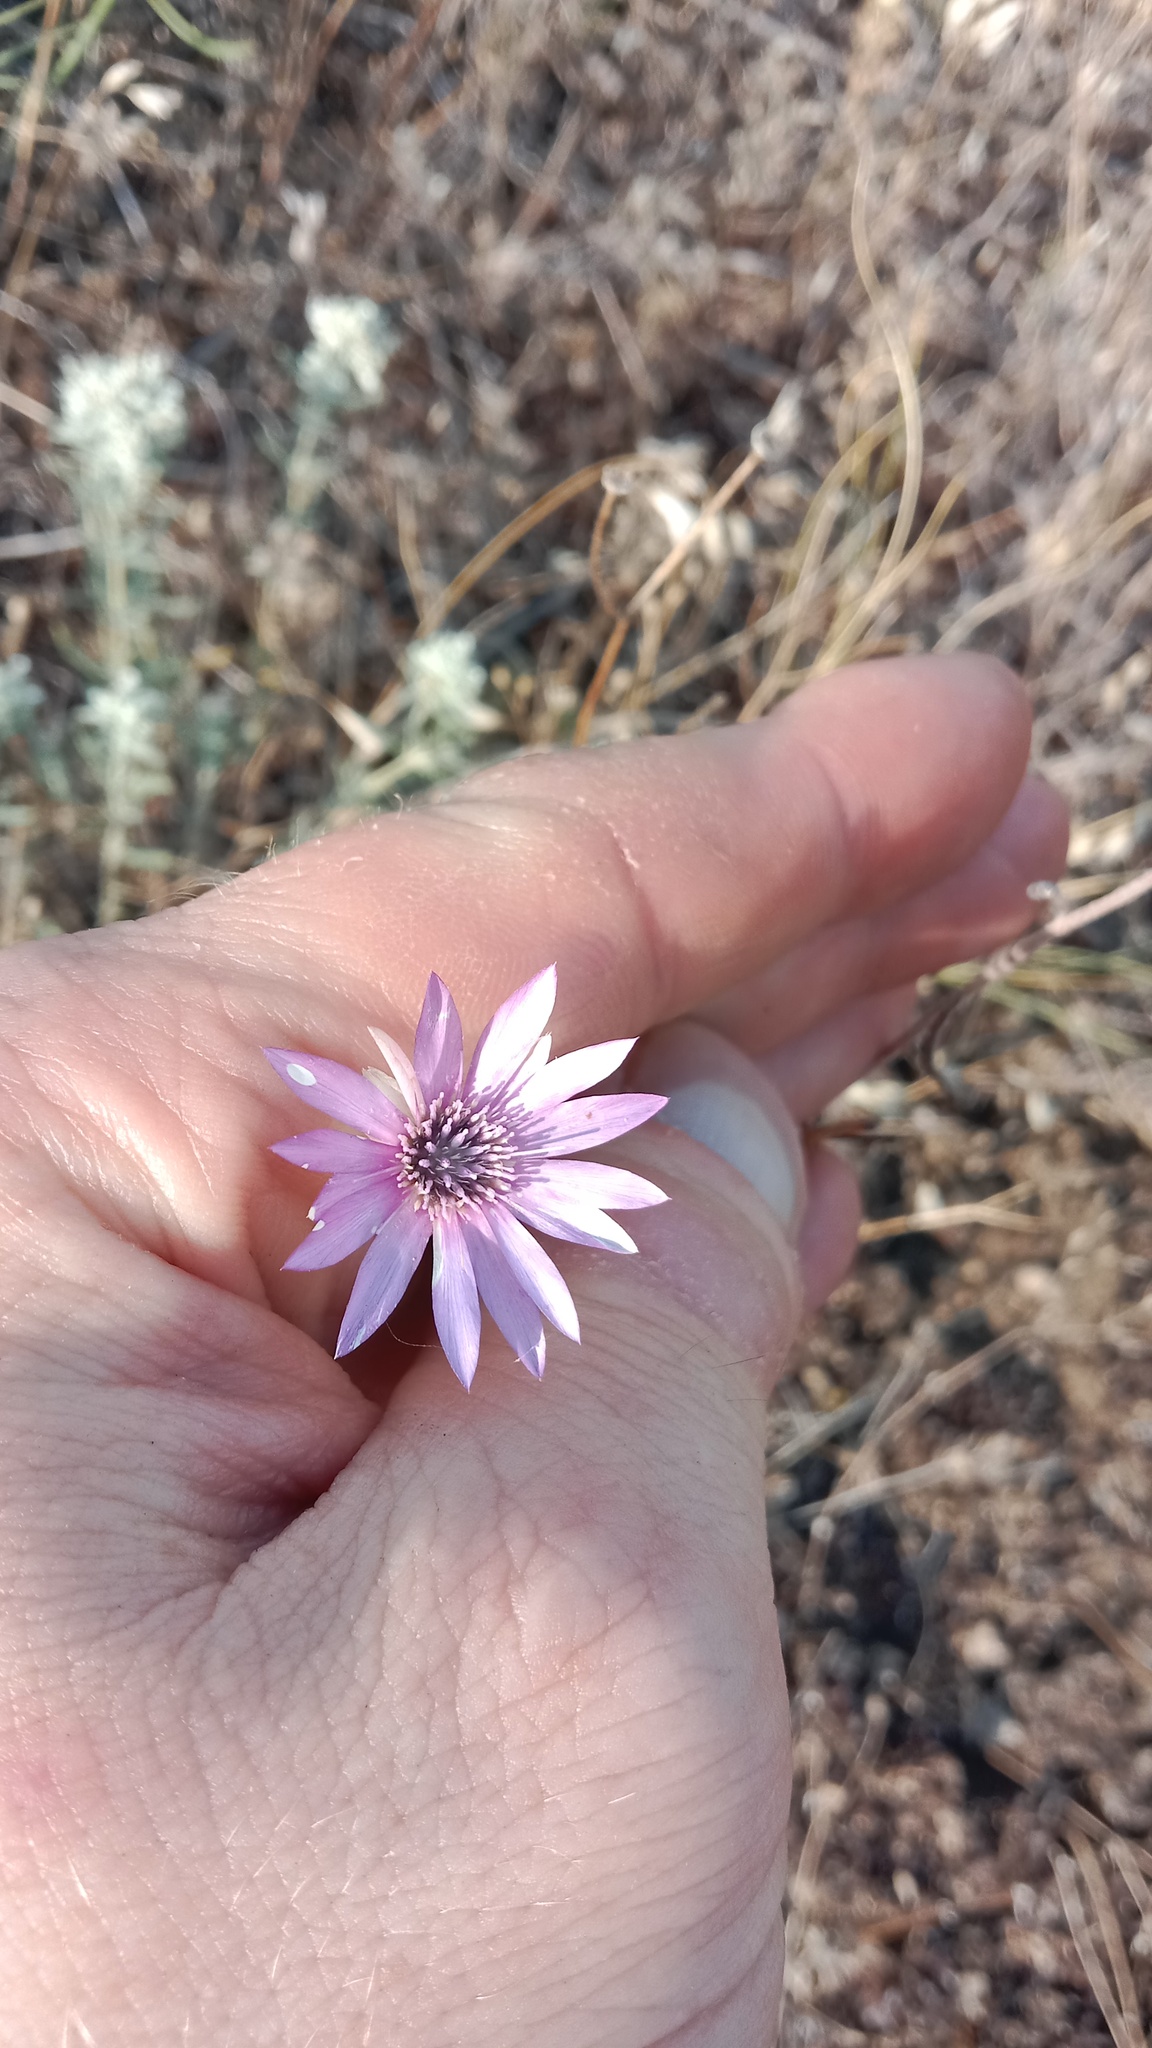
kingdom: Plantae
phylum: Tracheophyta
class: Magnoliopsida
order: Asterales
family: Asteraceae
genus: Xeranthemum
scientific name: Xeranthemum annuum
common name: Immortelle
